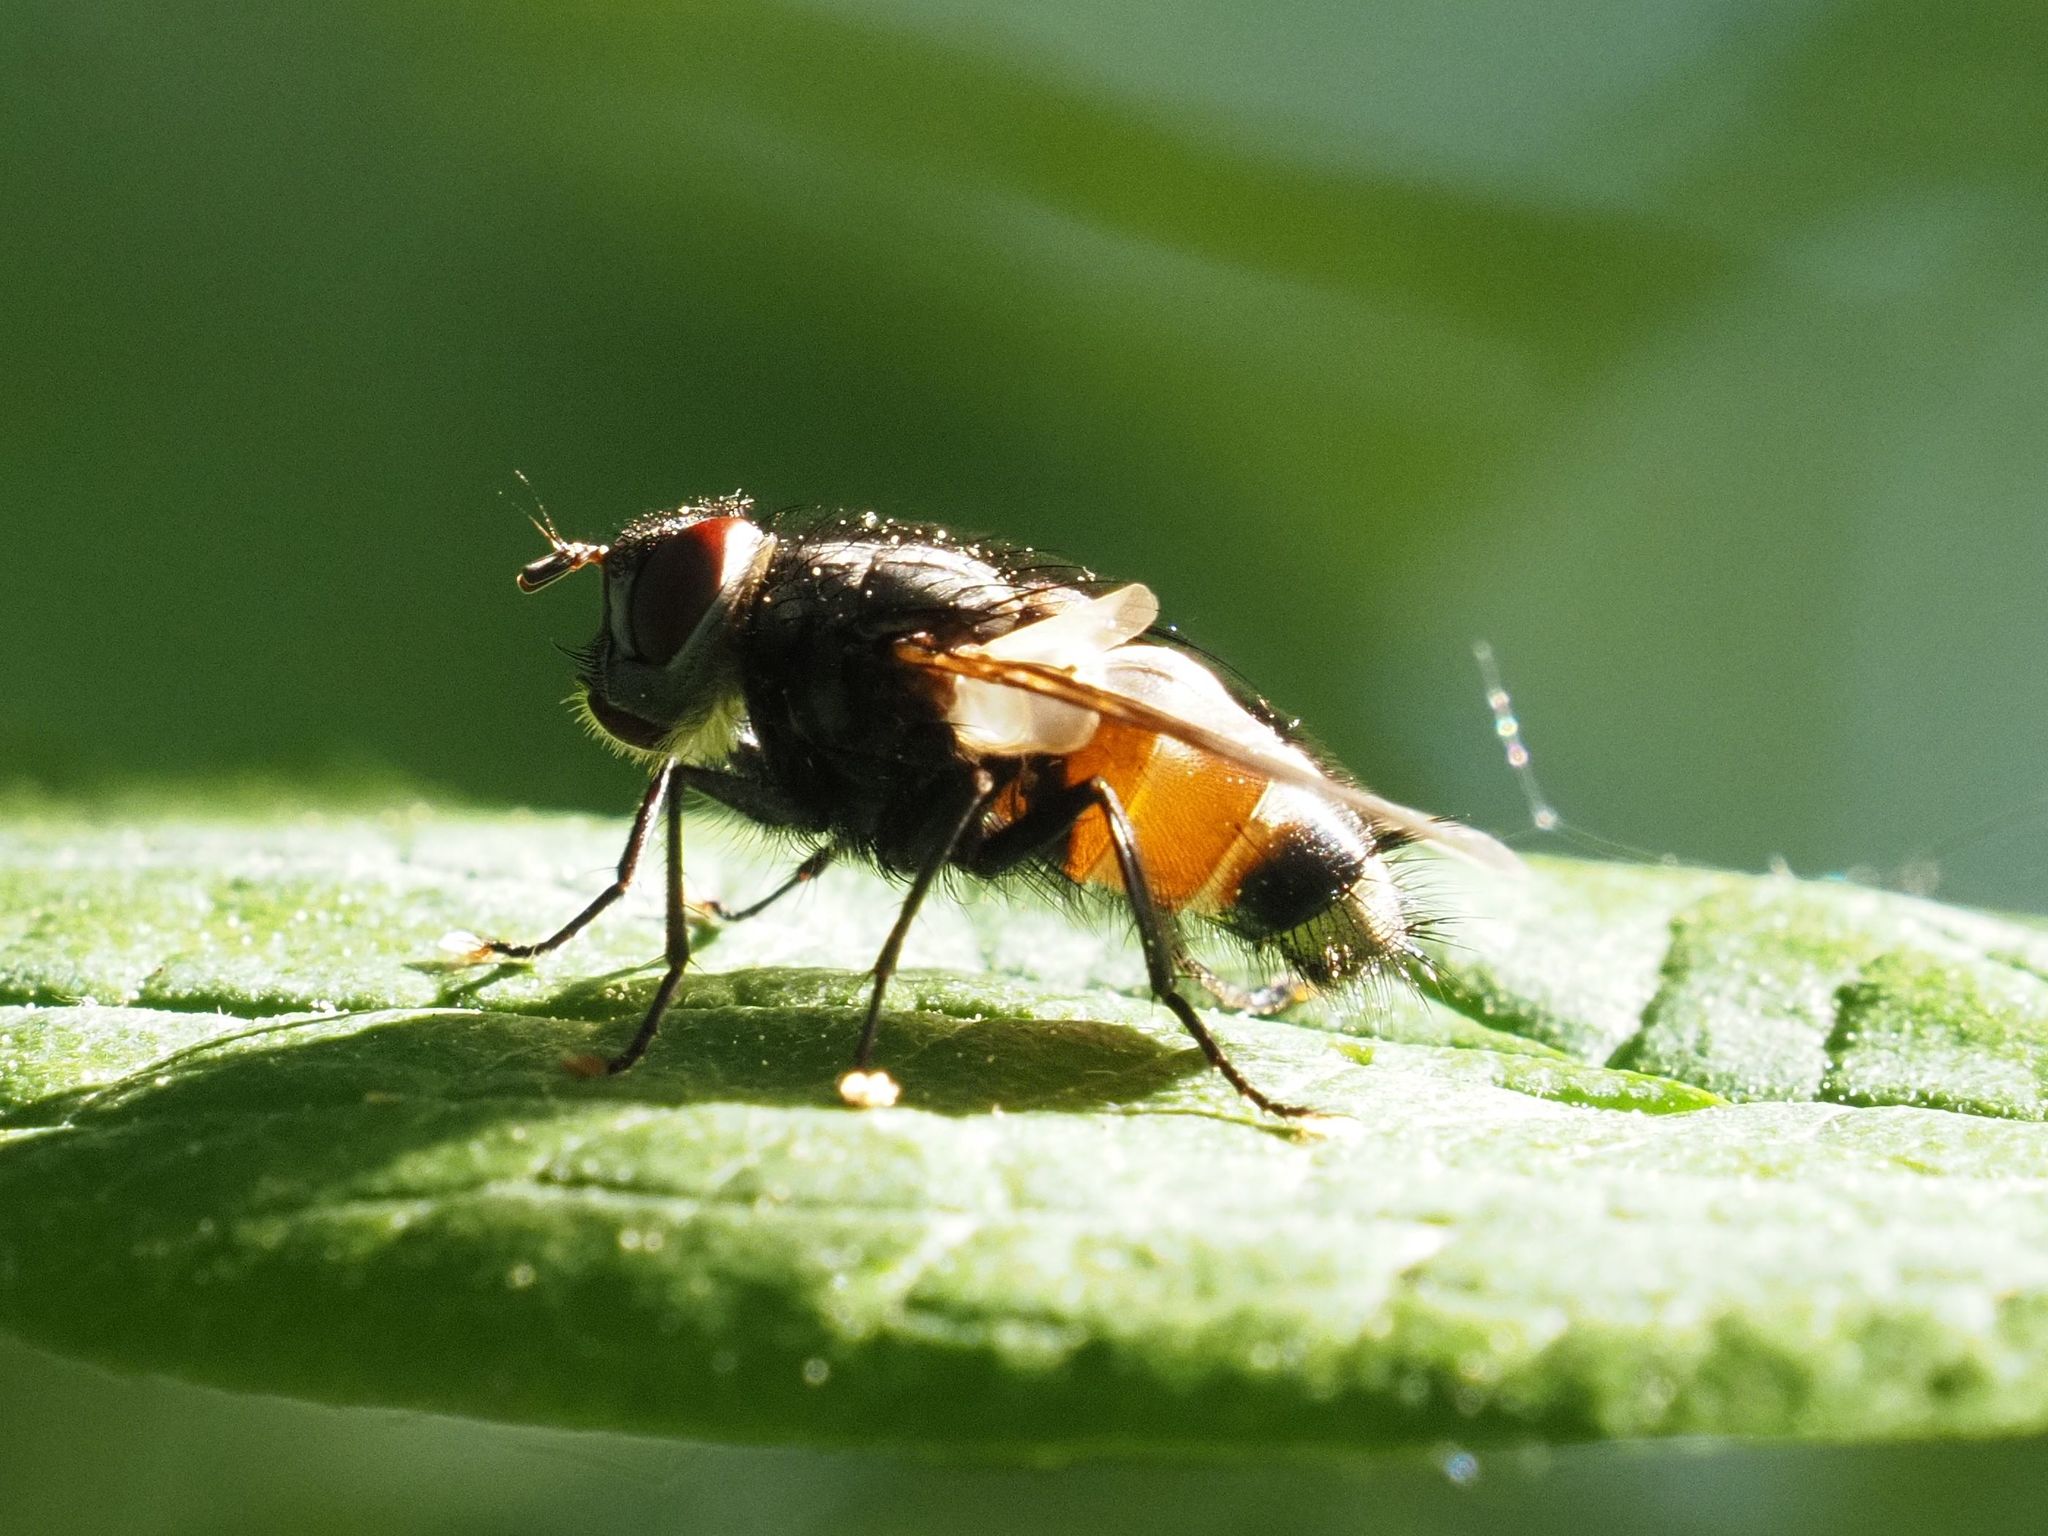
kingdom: Animalia
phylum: Arthropoda
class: Insecta
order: Diptera
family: Tachinidae
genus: Blepharipa
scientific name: Blepharipa schineri
